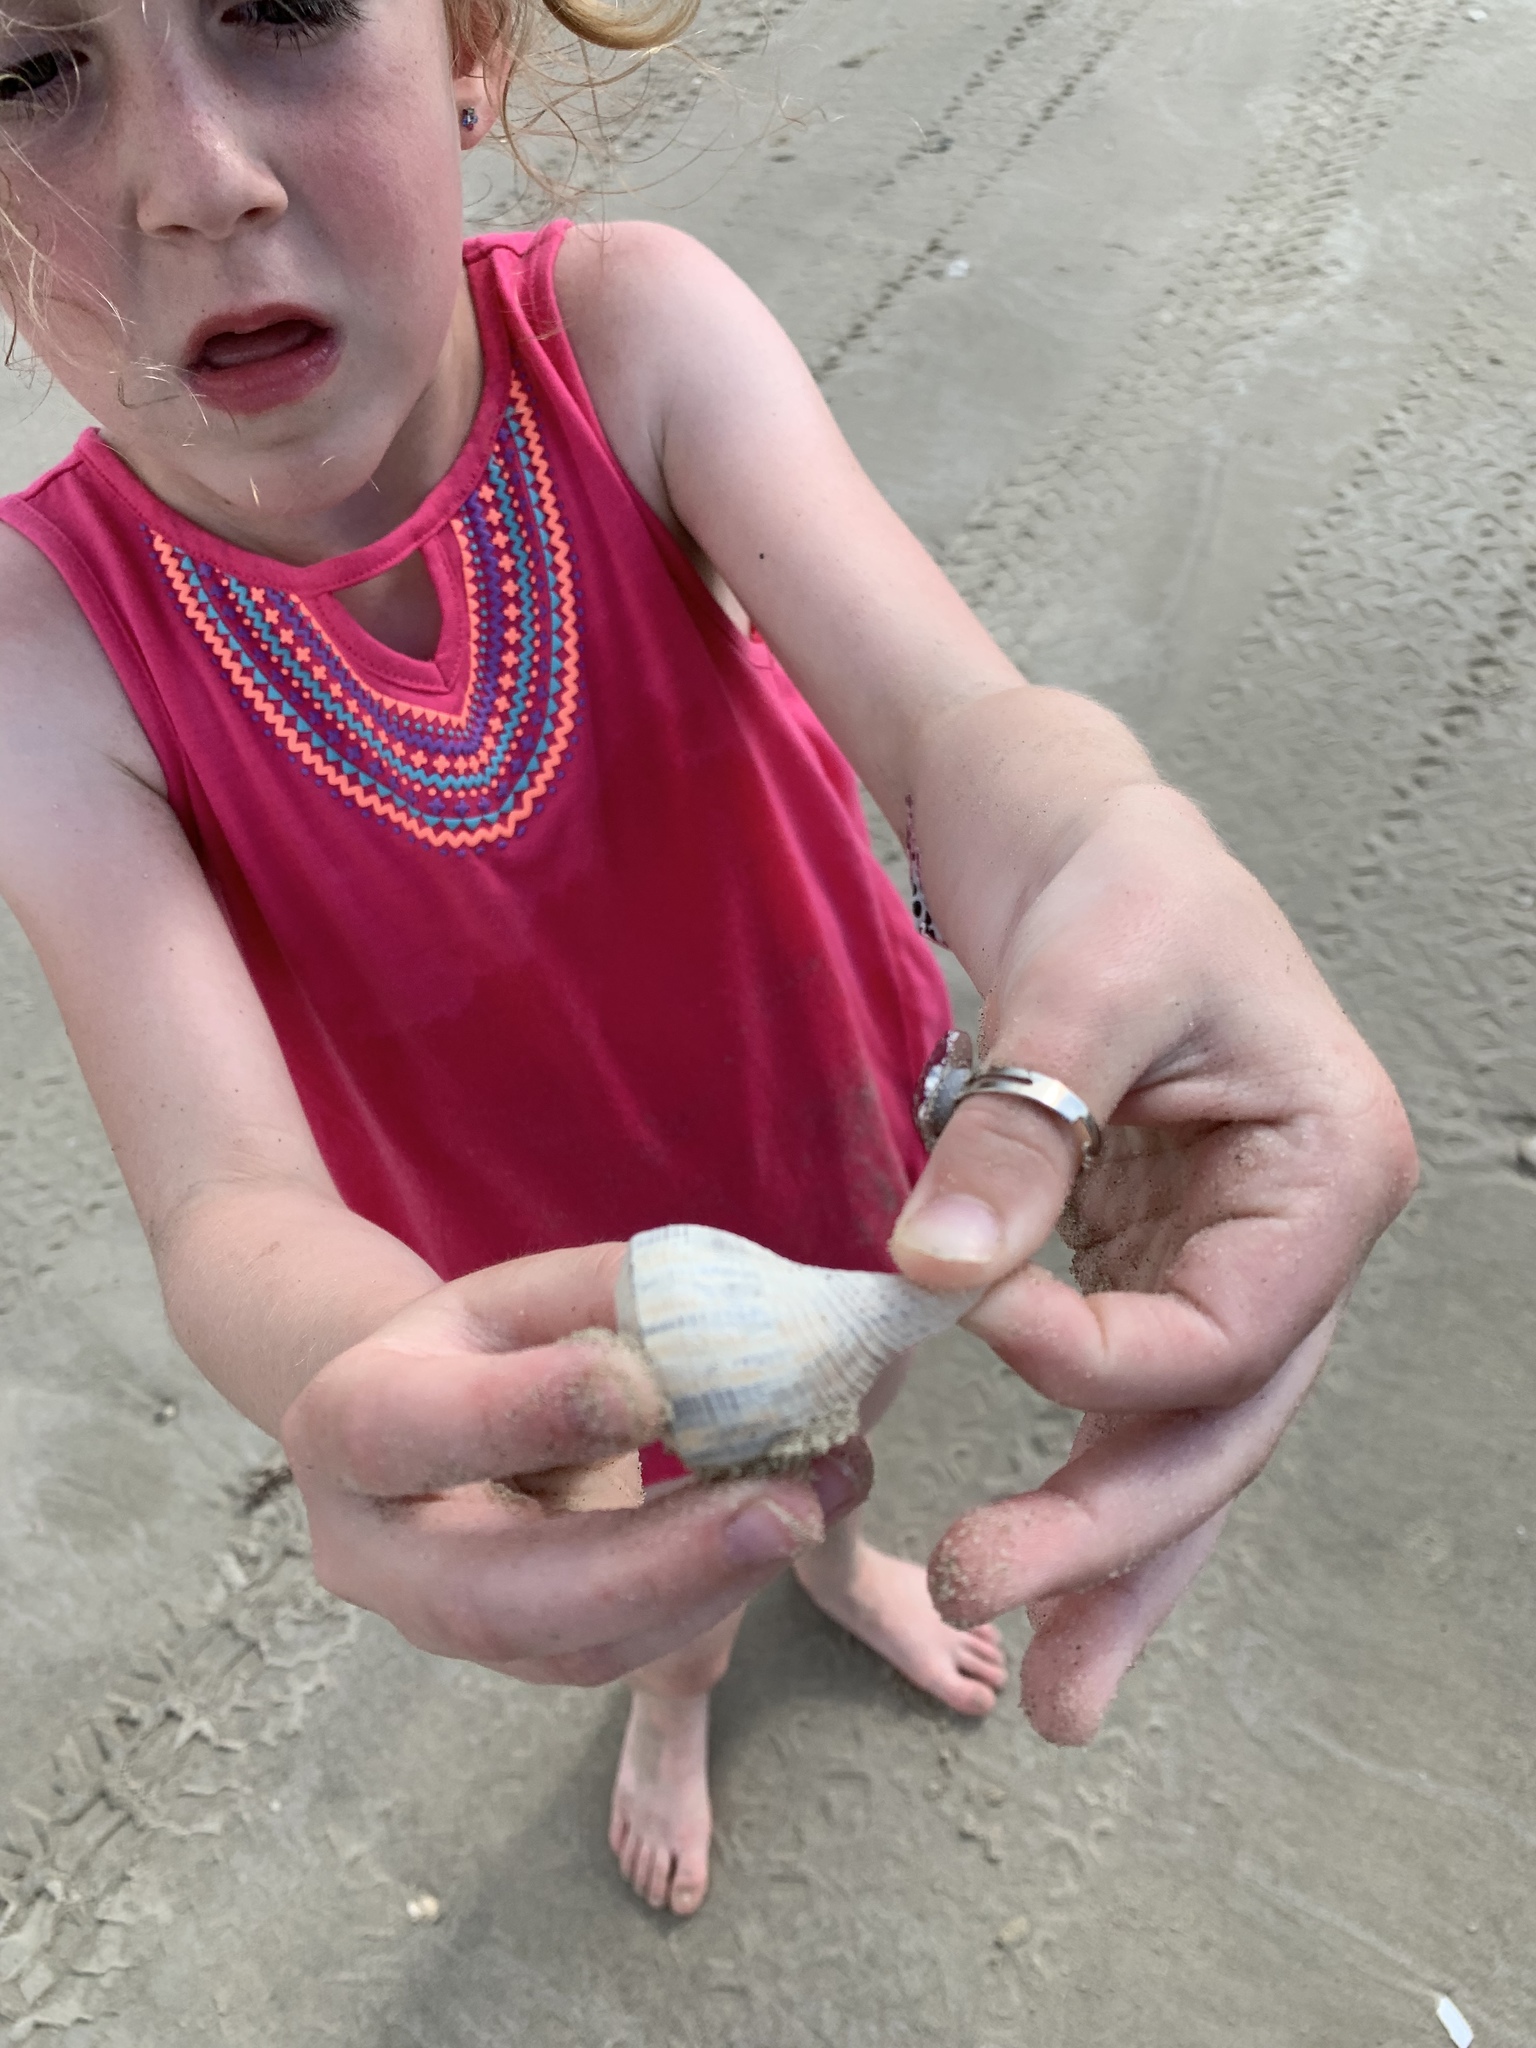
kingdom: Animalia
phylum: Mollusca
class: Gastropoda
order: Neogastropoda
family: Busyconidae
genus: Fulguropsis
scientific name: Fulguropsis plagosa
